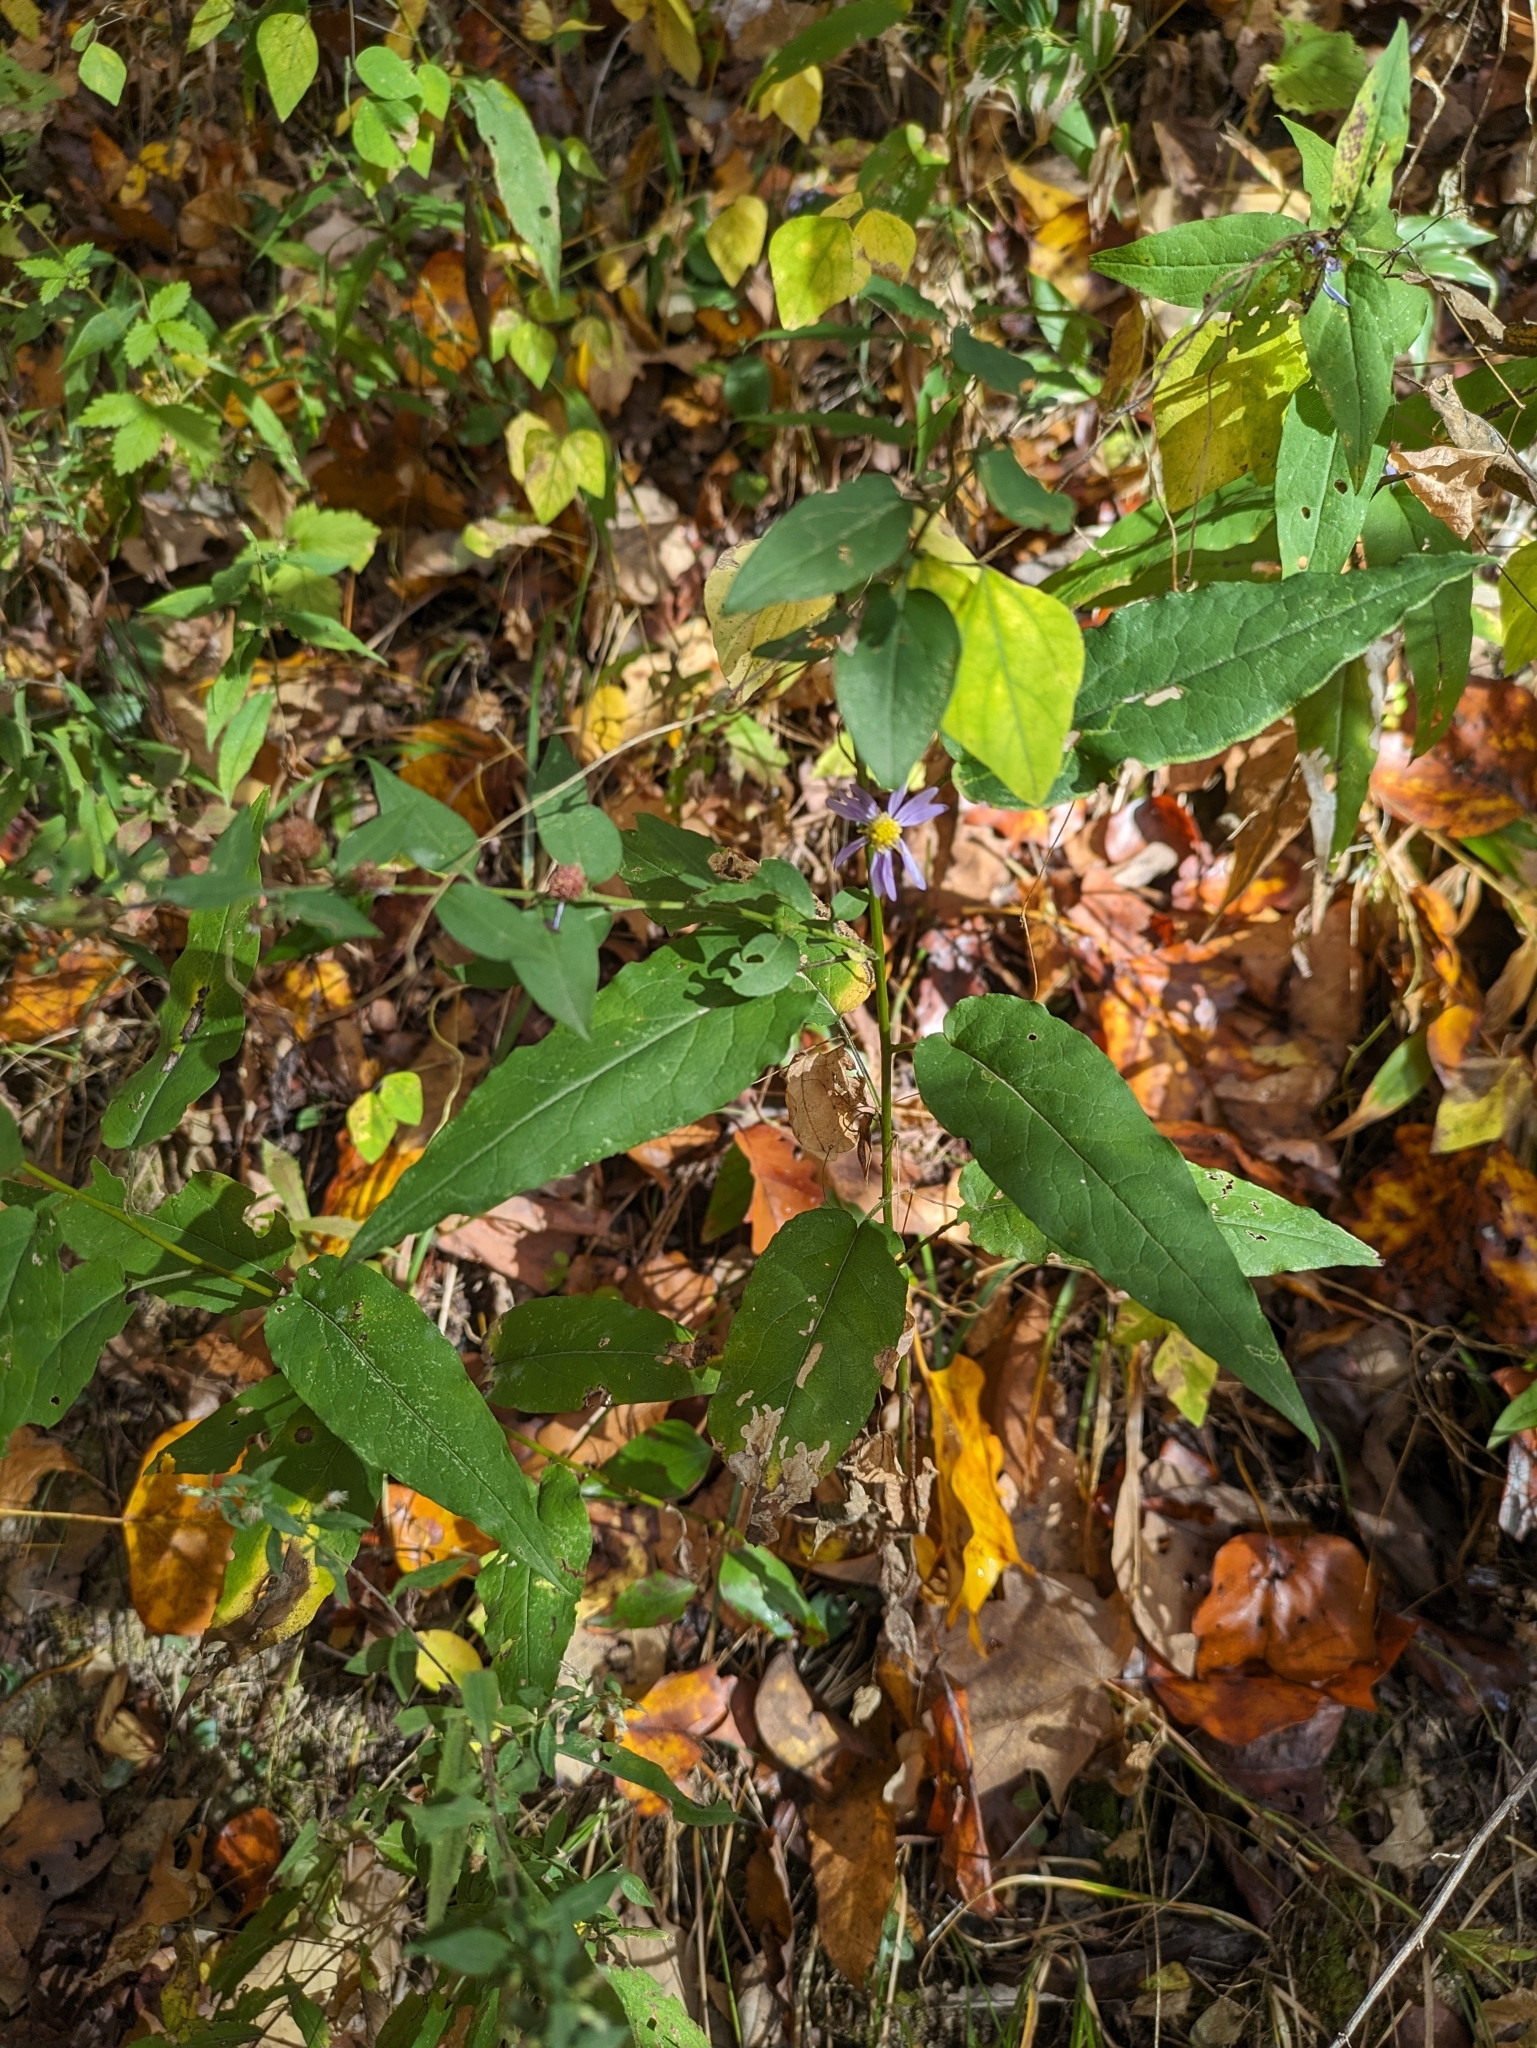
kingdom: Plantae
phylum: Tracheophyta
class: Magnoliopsida
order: Asterales
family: Asteraceae
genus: Symphyotrichum
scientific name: Symphyotrichum shortii
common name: Short's aster
